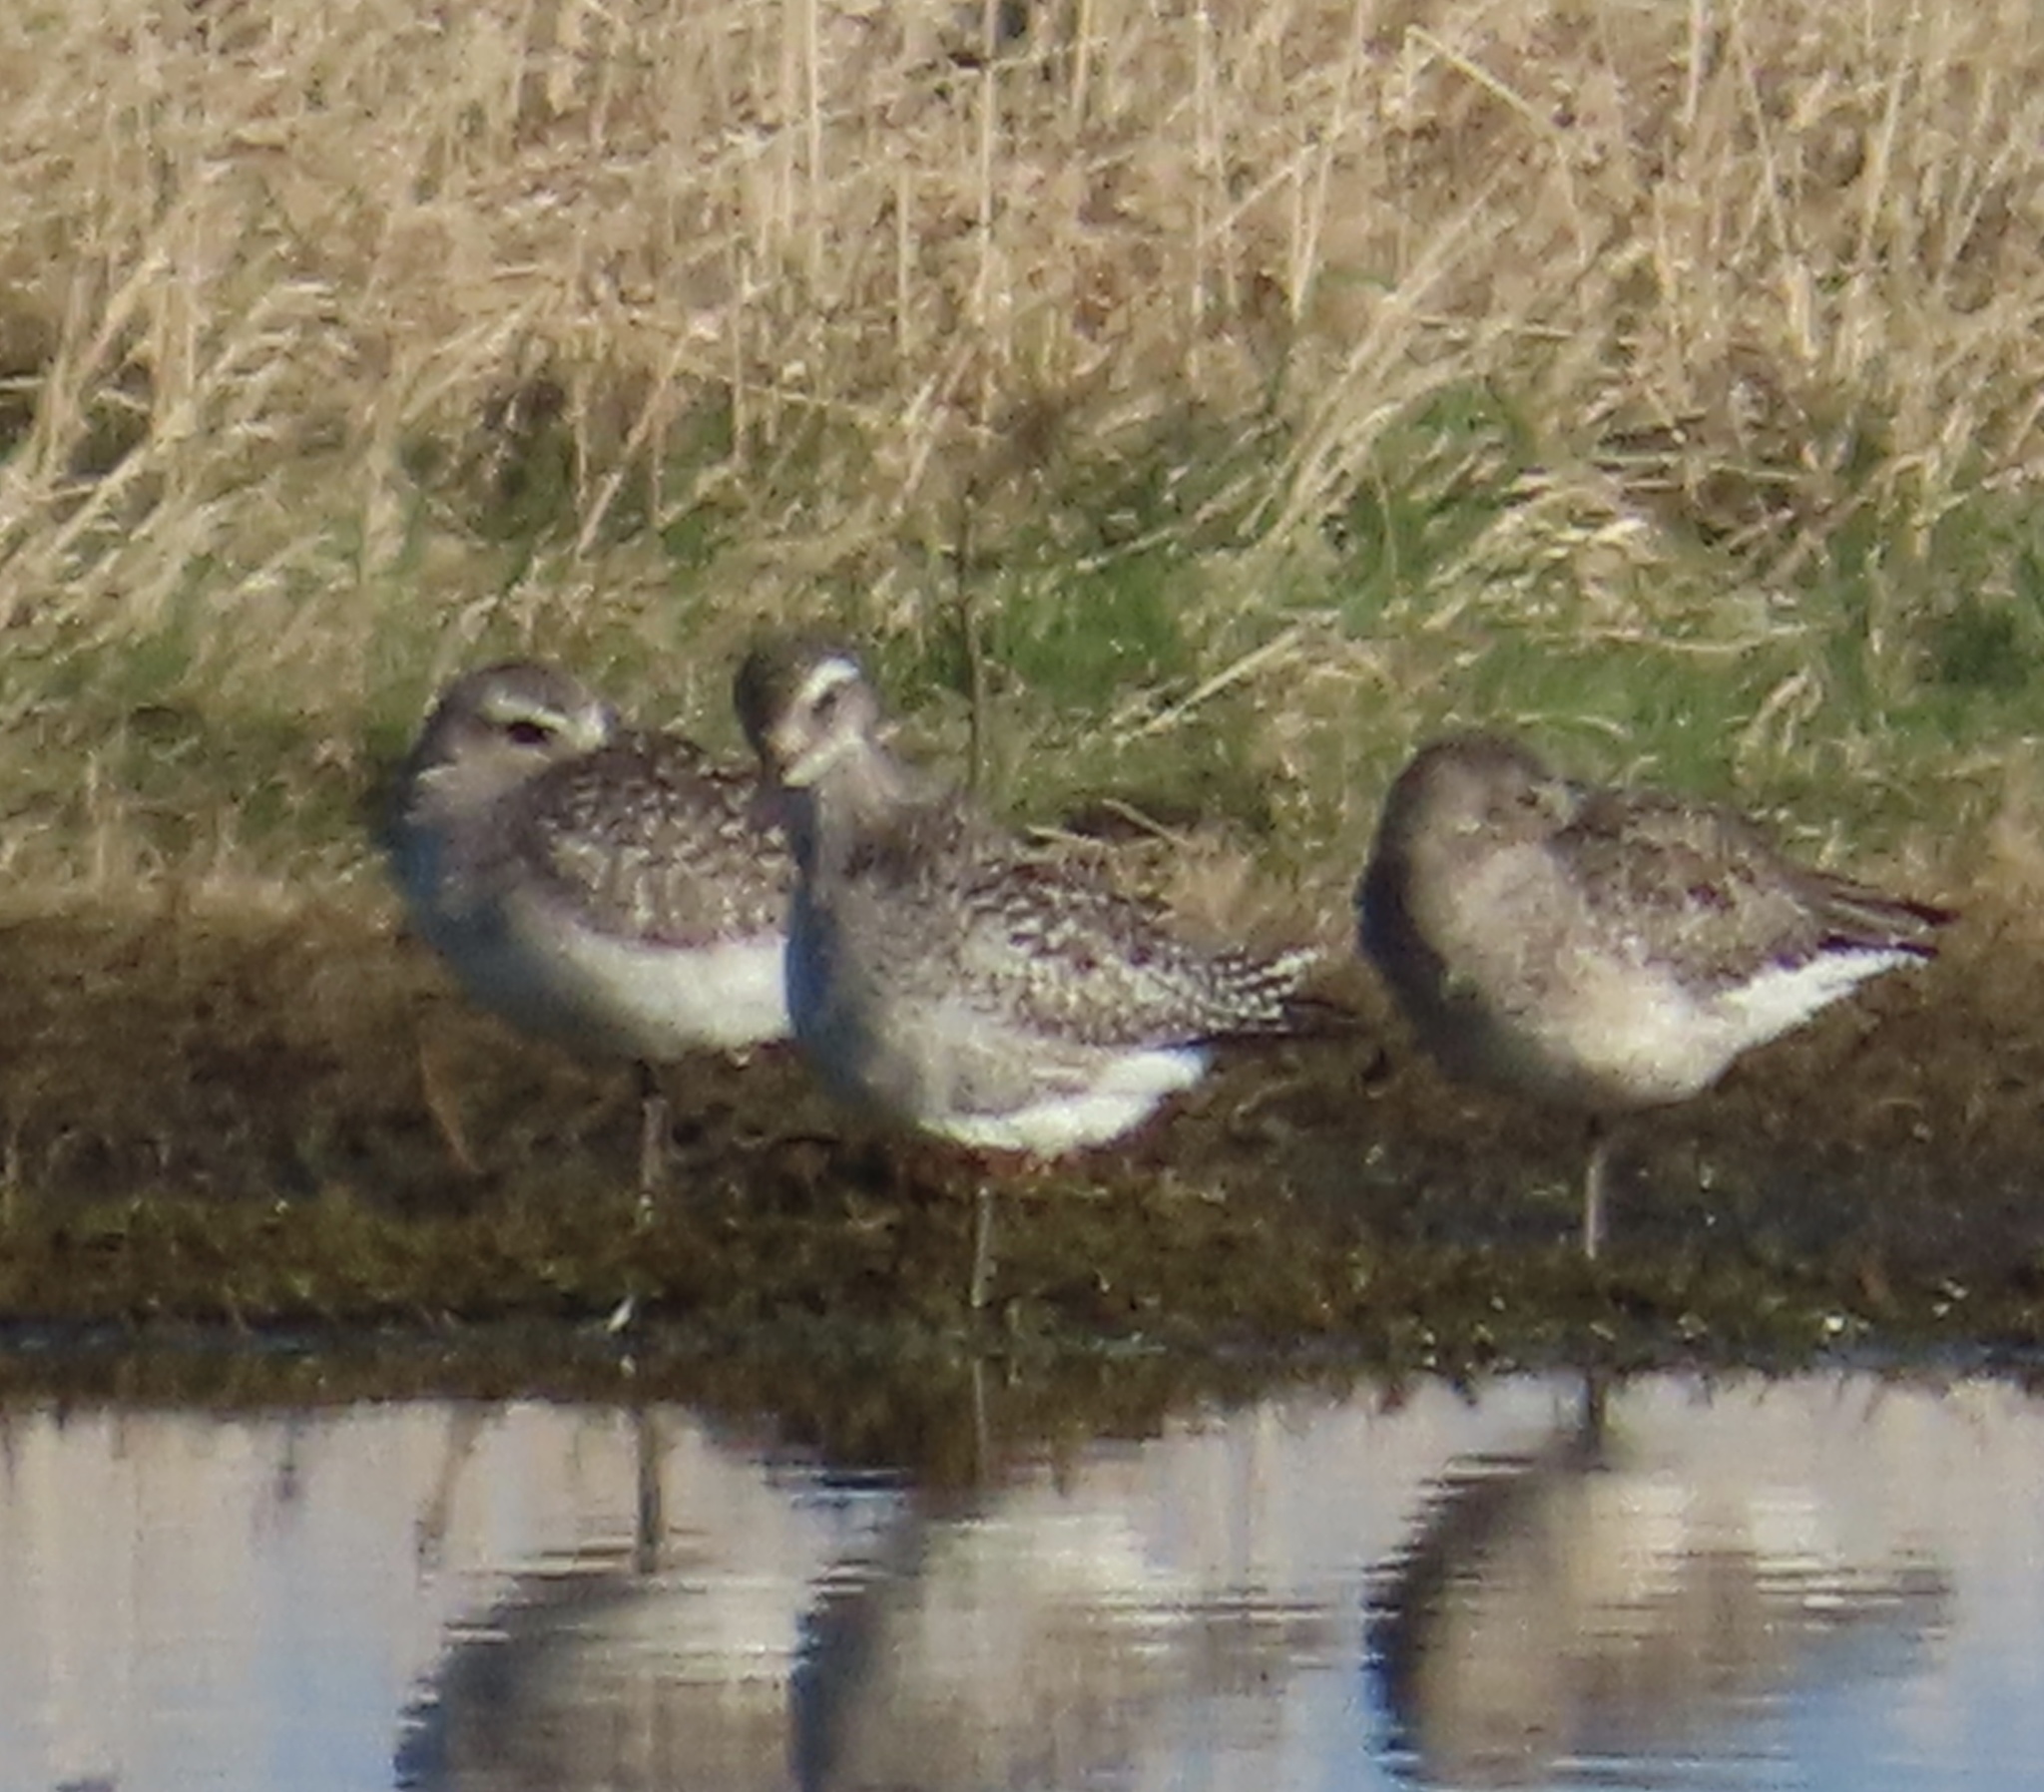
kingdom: Animalia
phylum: Chordata
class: Aves
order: Charadriiformes
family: Charadriidae
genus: Pluvialis
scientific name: Pluvialis squatarola
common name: Grey plover
